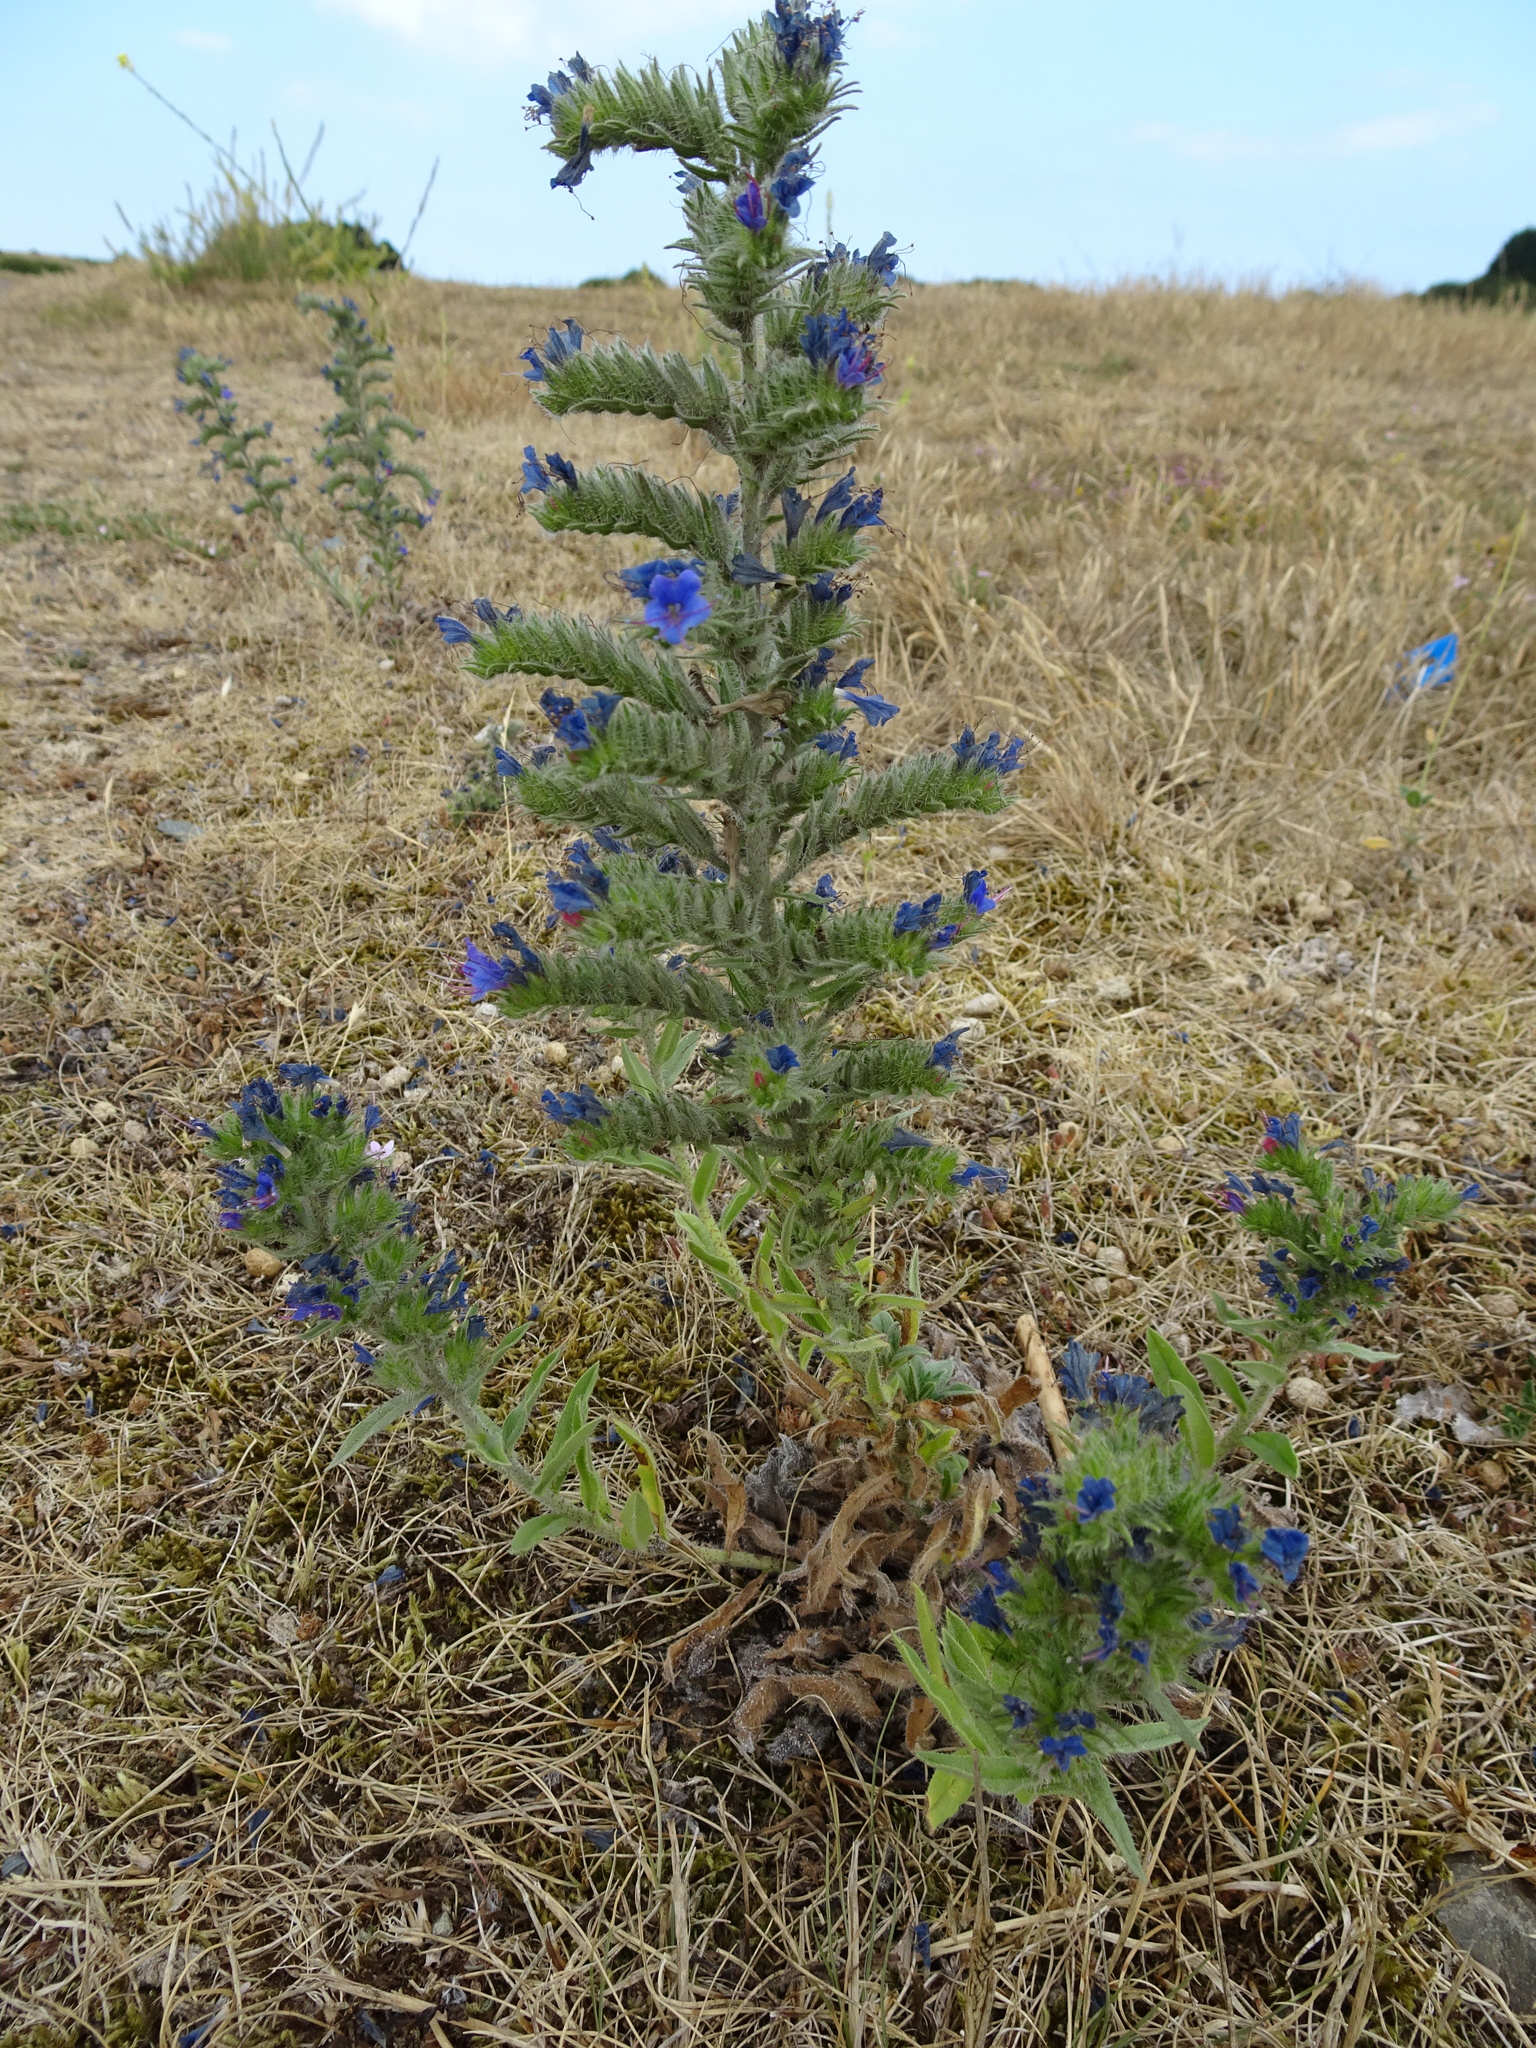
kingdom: Plantae
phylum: Tracheophyta
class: Magnoliopsida
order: Boraginales
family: Boraginaceae
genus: Echium
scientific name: Echium vulgare
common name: Common viper's bugloss
